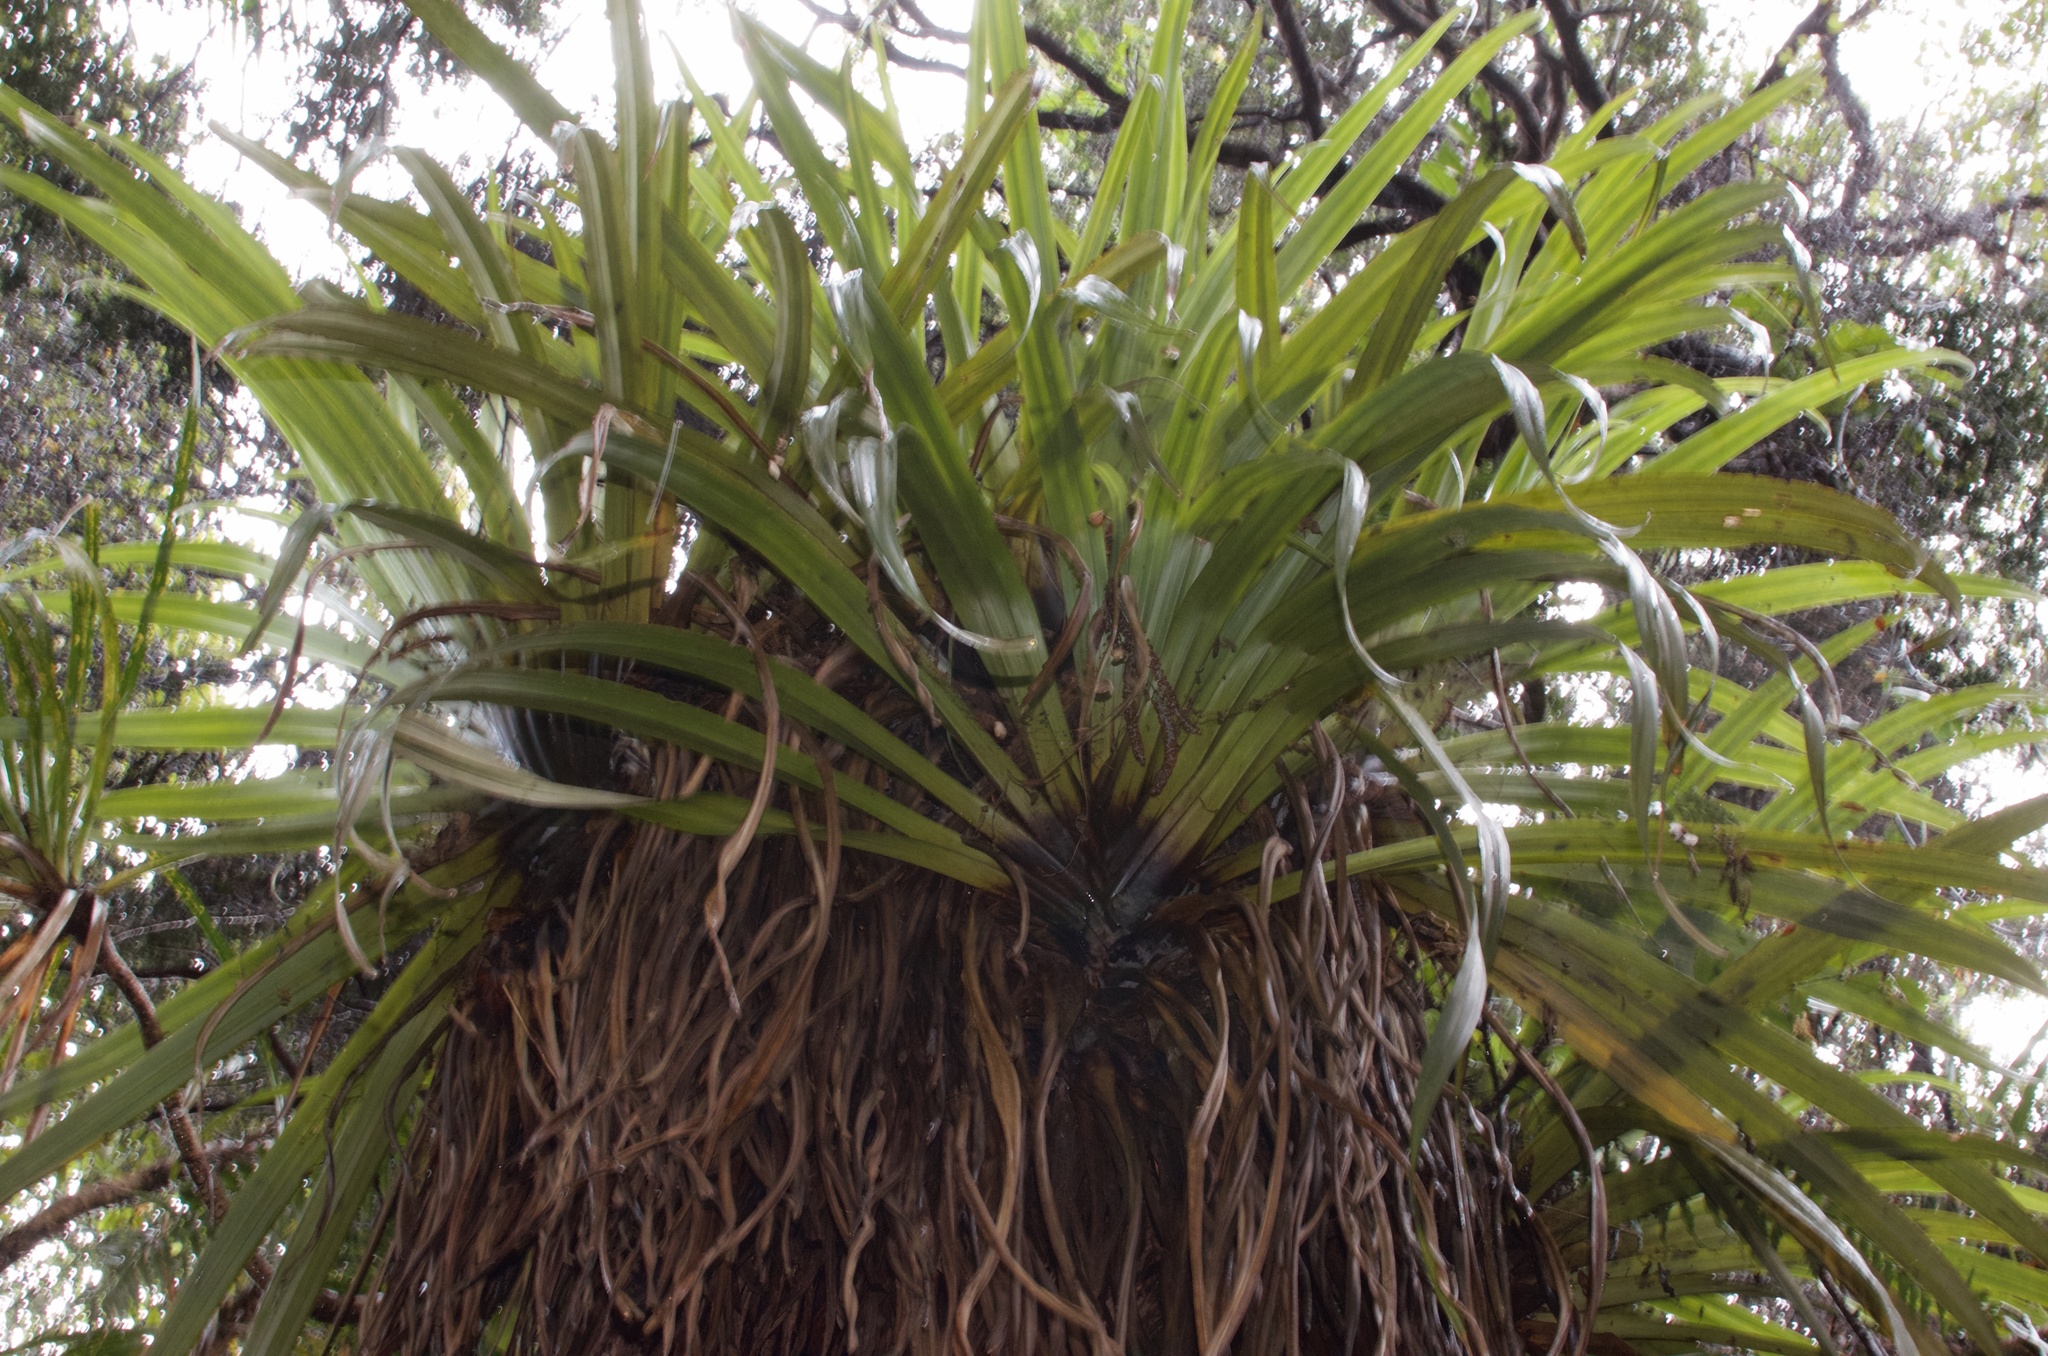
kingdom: Plantae
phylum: Tracheophyta
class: Liliopsida
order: Asparagales
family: Asteliaceae
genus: Astelia
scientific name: Astelia hastata
